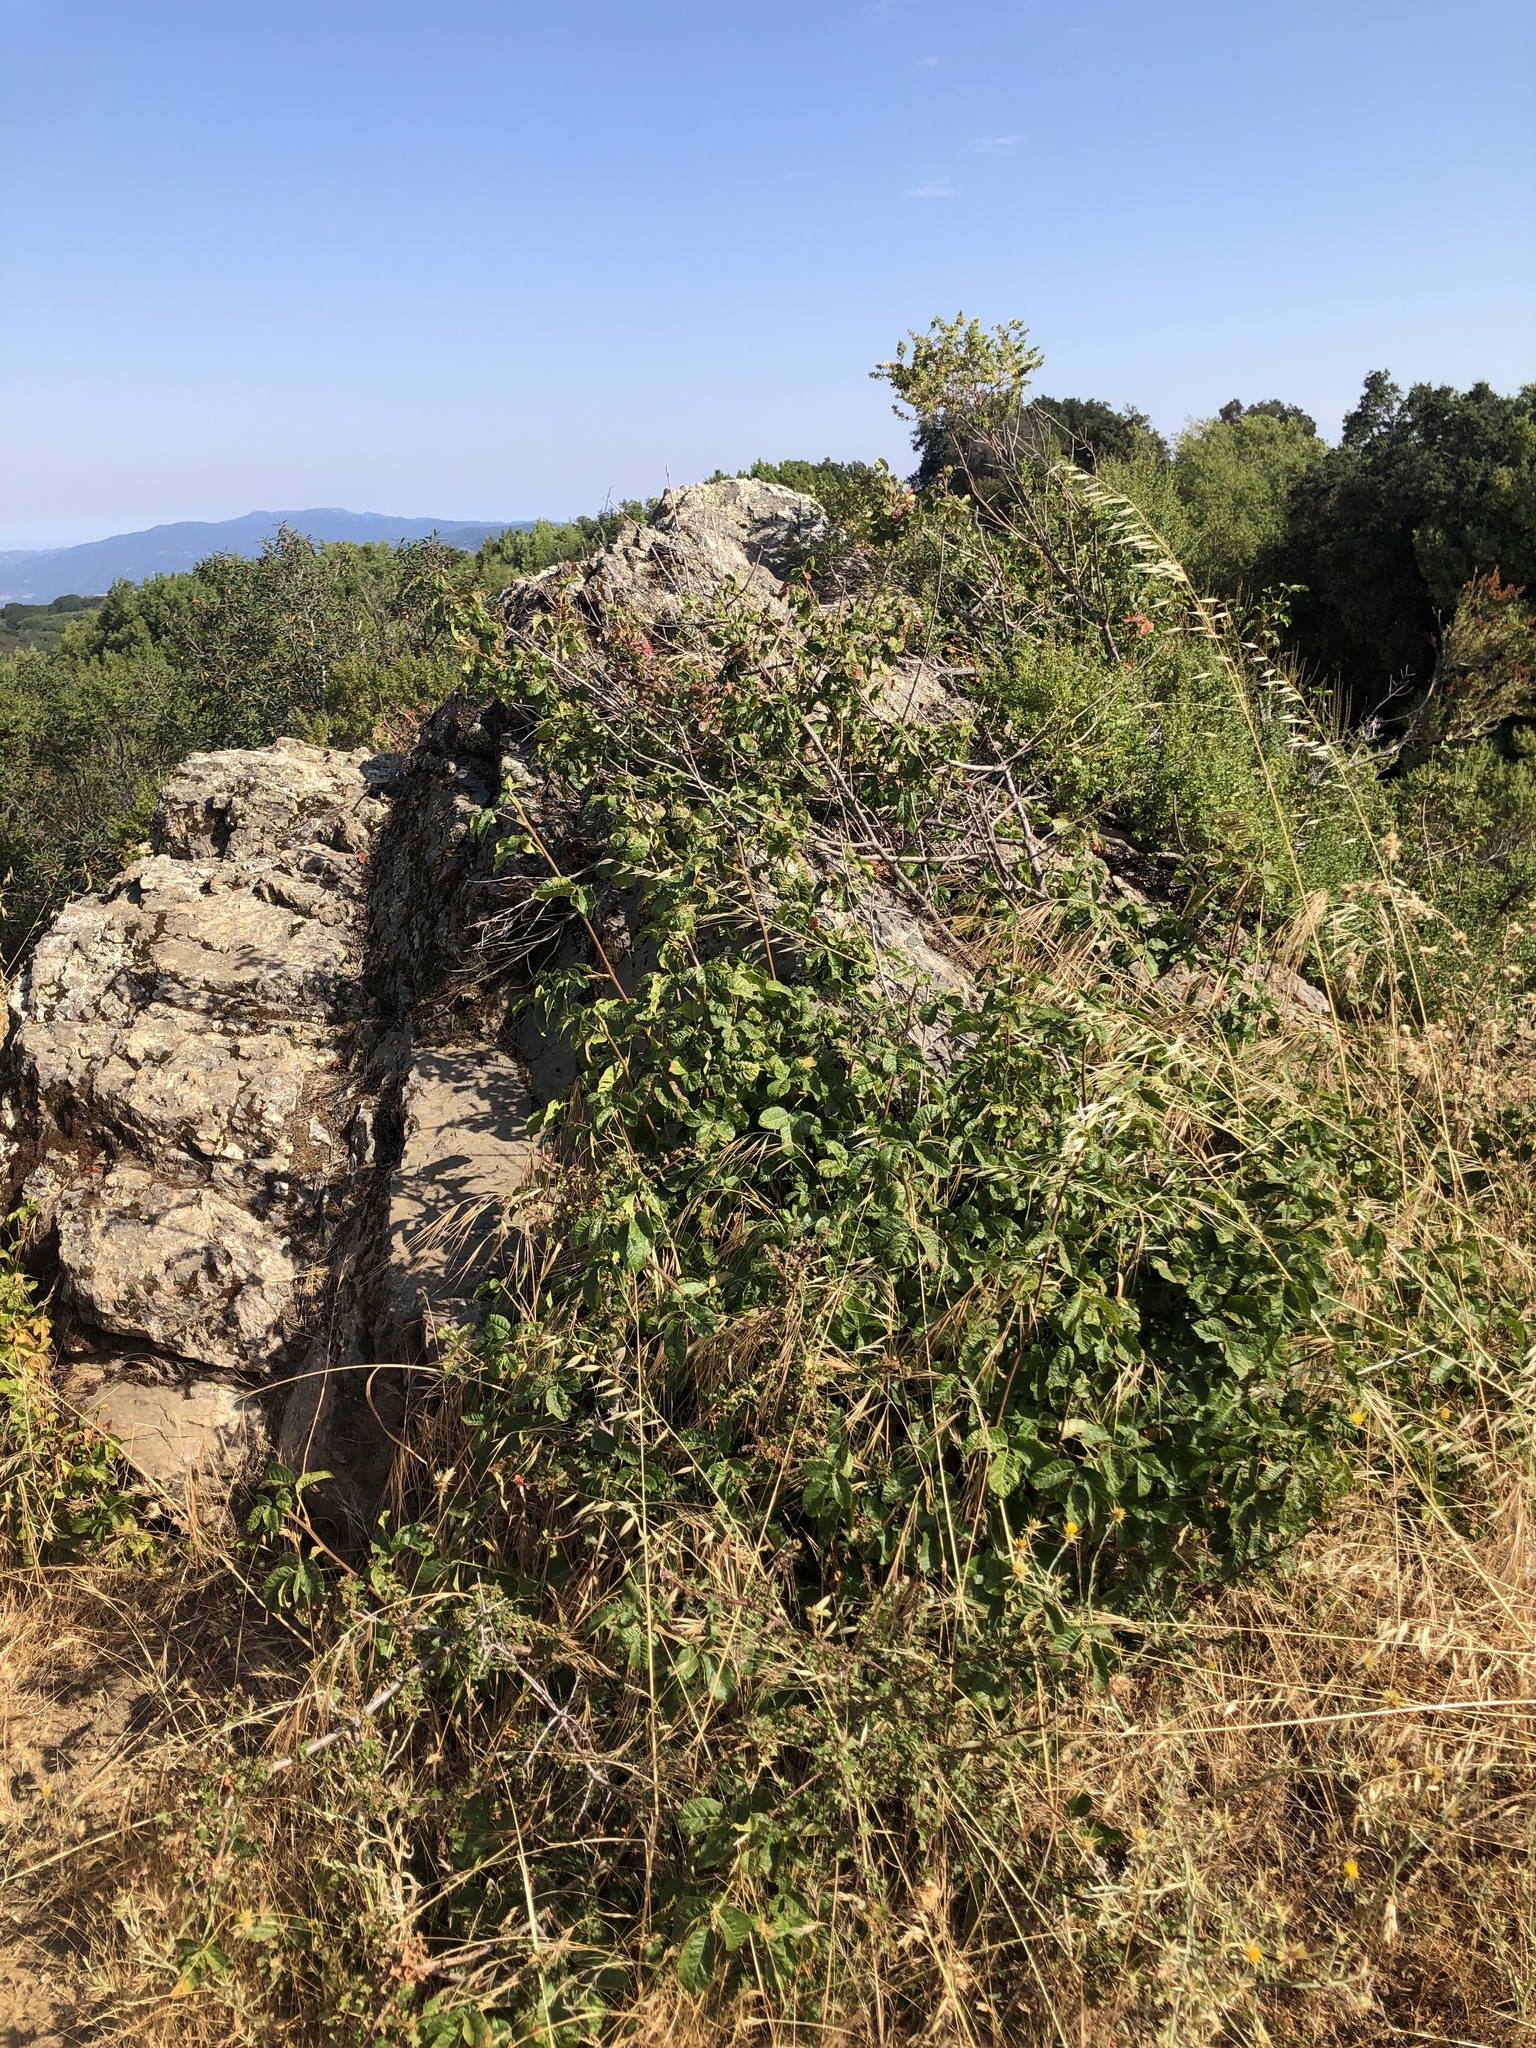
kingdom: Plantae
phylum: Tracheophyta
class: Magnoliopsida
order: Sapindales
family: Anacardiaceae
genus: Toxicodendron
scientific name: Toxicodendron diversilobum
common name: Pacific poison-oak
